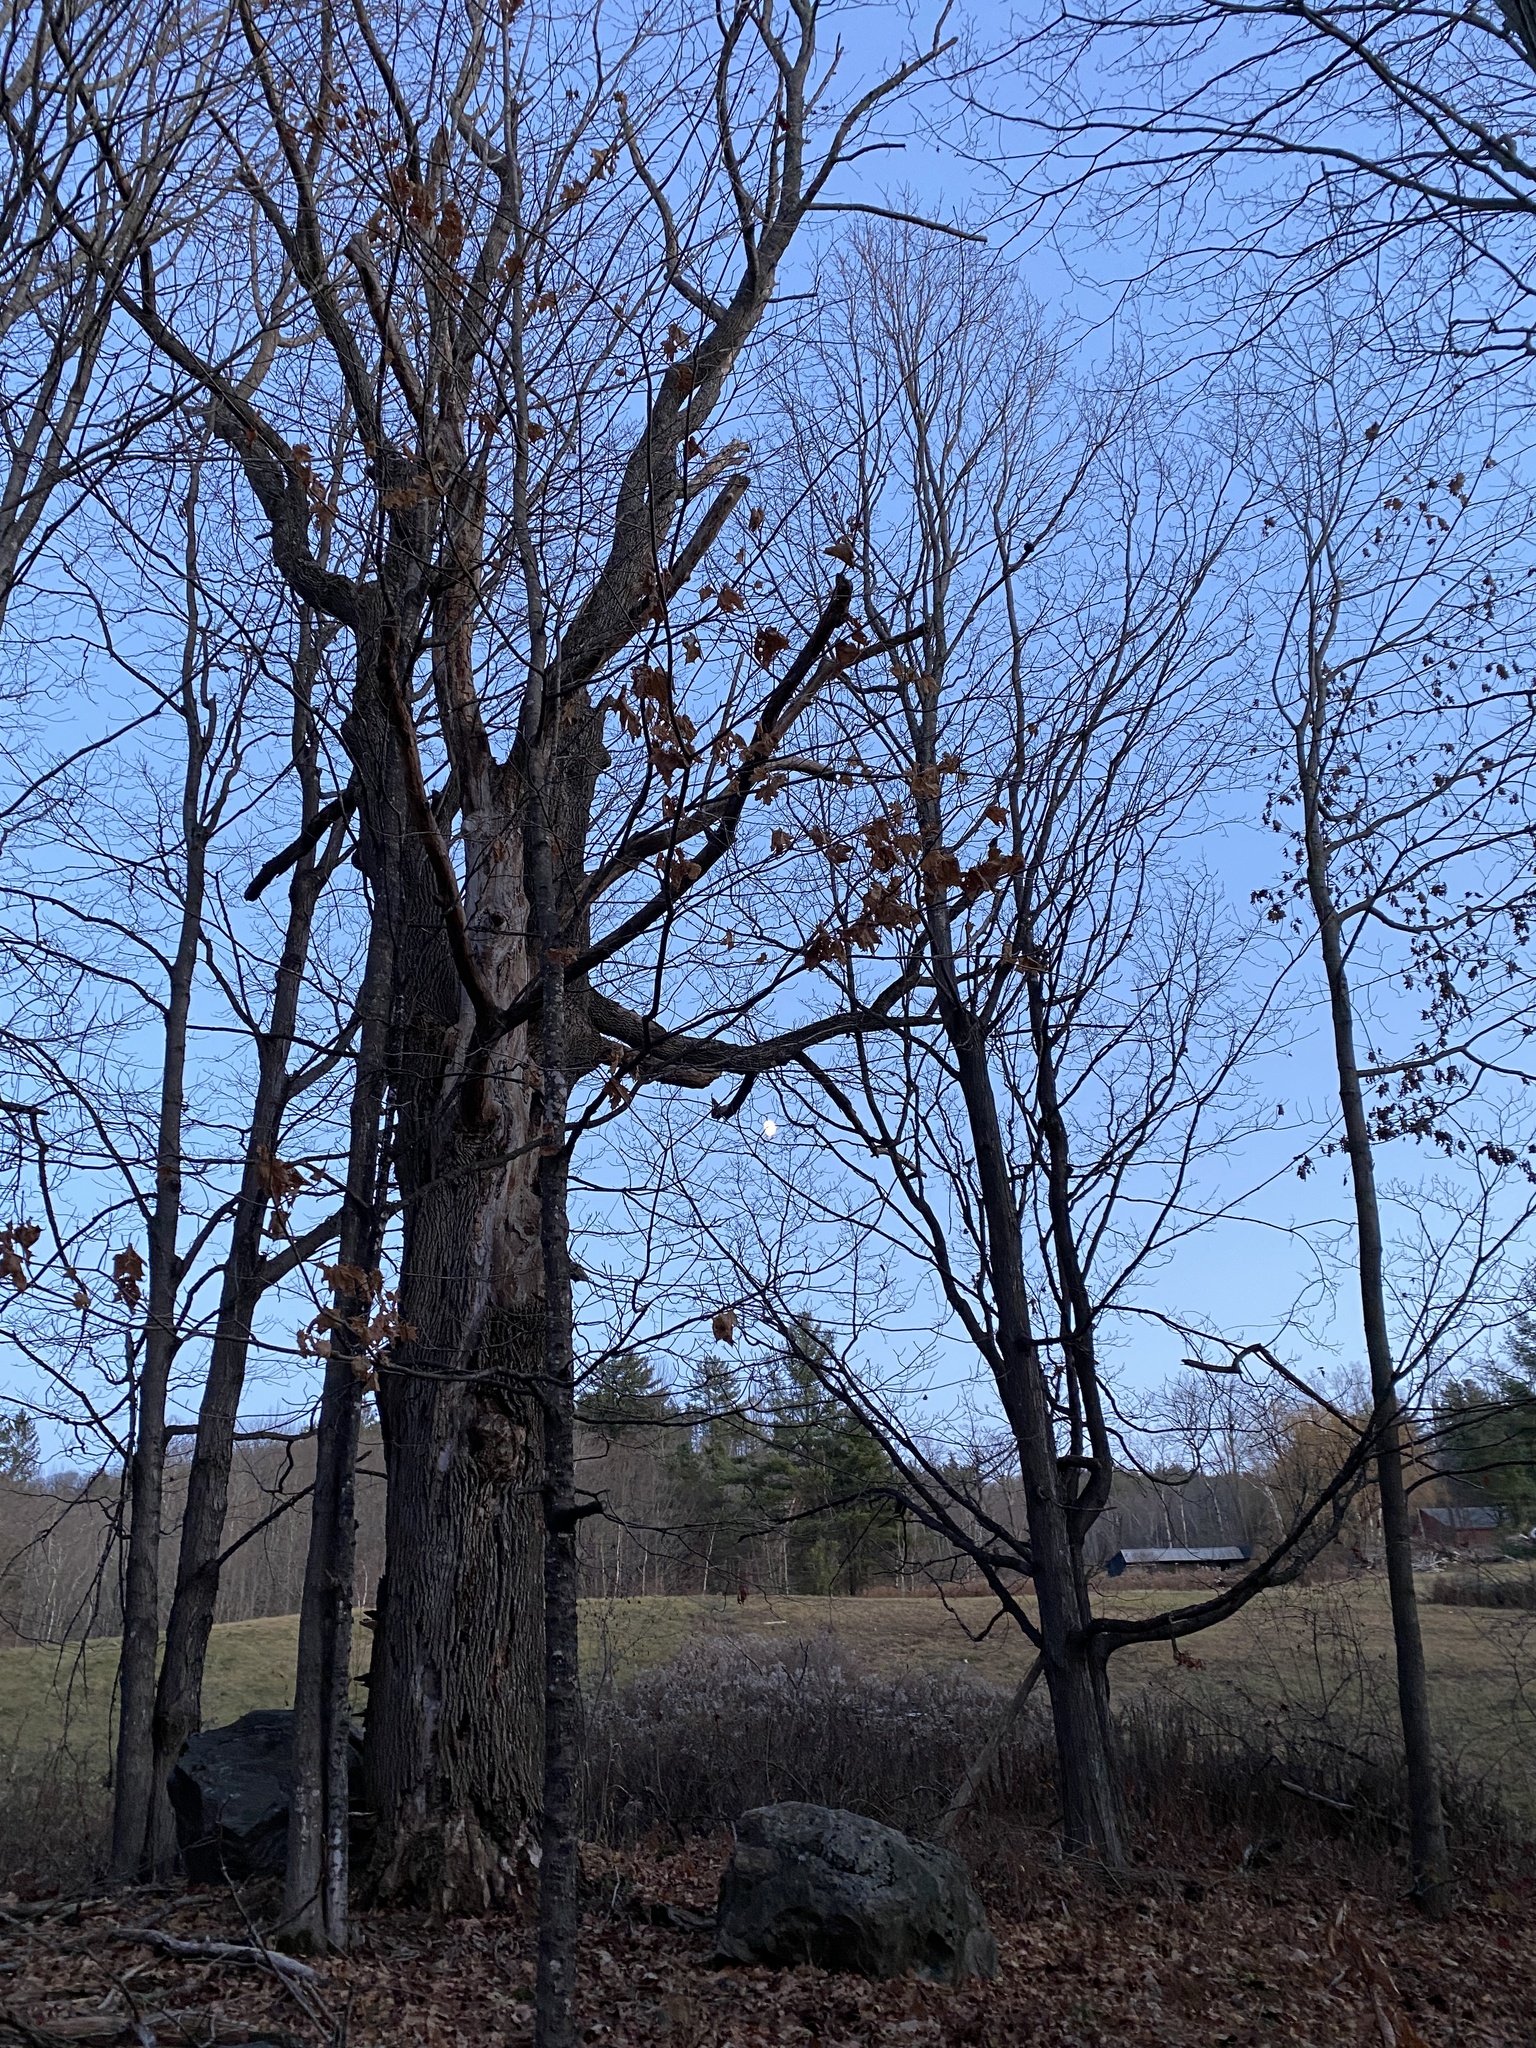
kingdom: Plantae
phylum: Tracheophyta
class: Magnoliopsida
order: Sapindales
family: Sapindaceae
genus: Acer
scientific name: Acer saccharum
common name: Sugar maple
